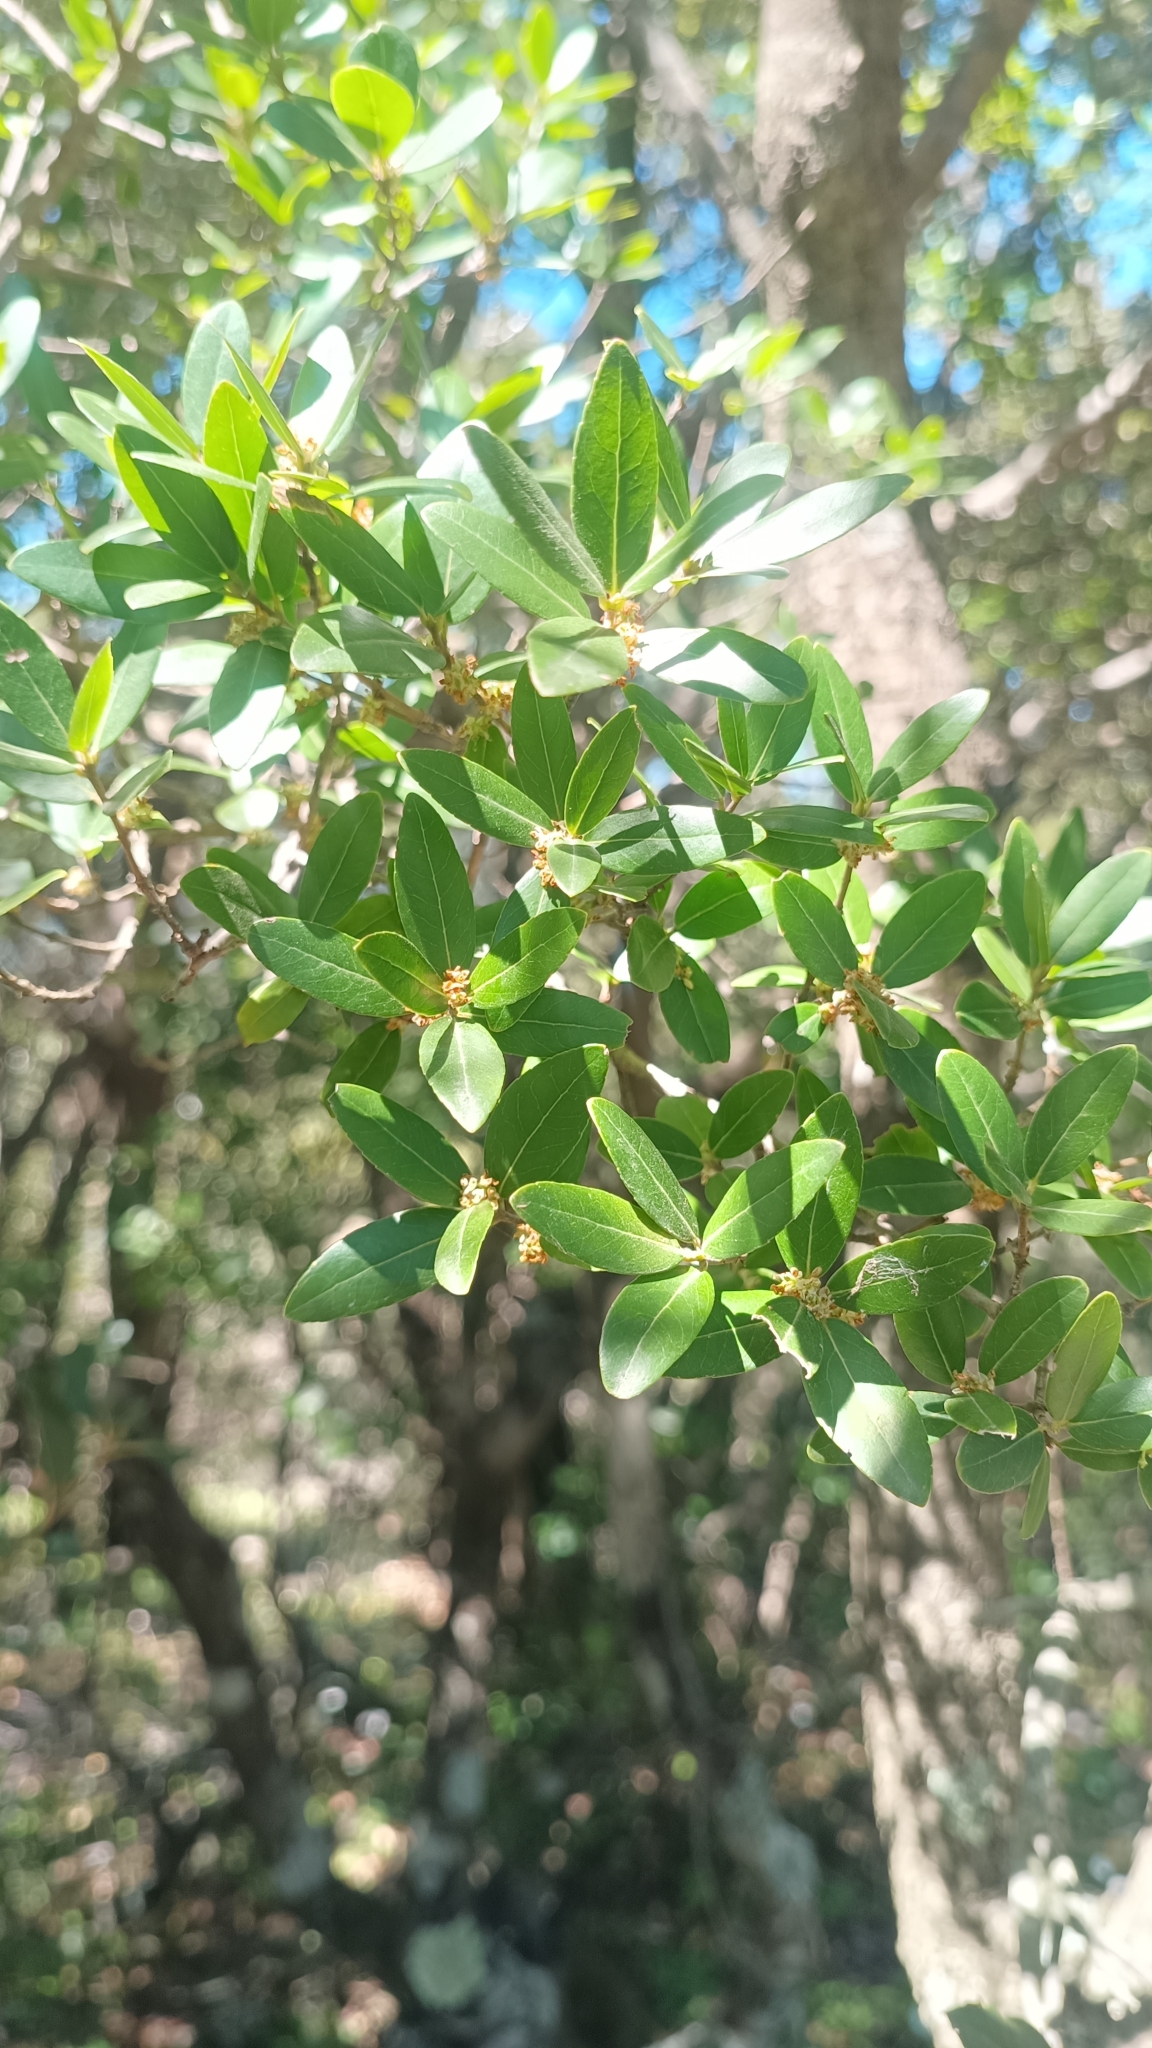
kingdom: Plantae
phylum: Tracheophyta
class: Magnoliopsida
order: Lamiales
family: Oleaceae
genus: Phillyrea
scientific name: Phillyrea latifolia
